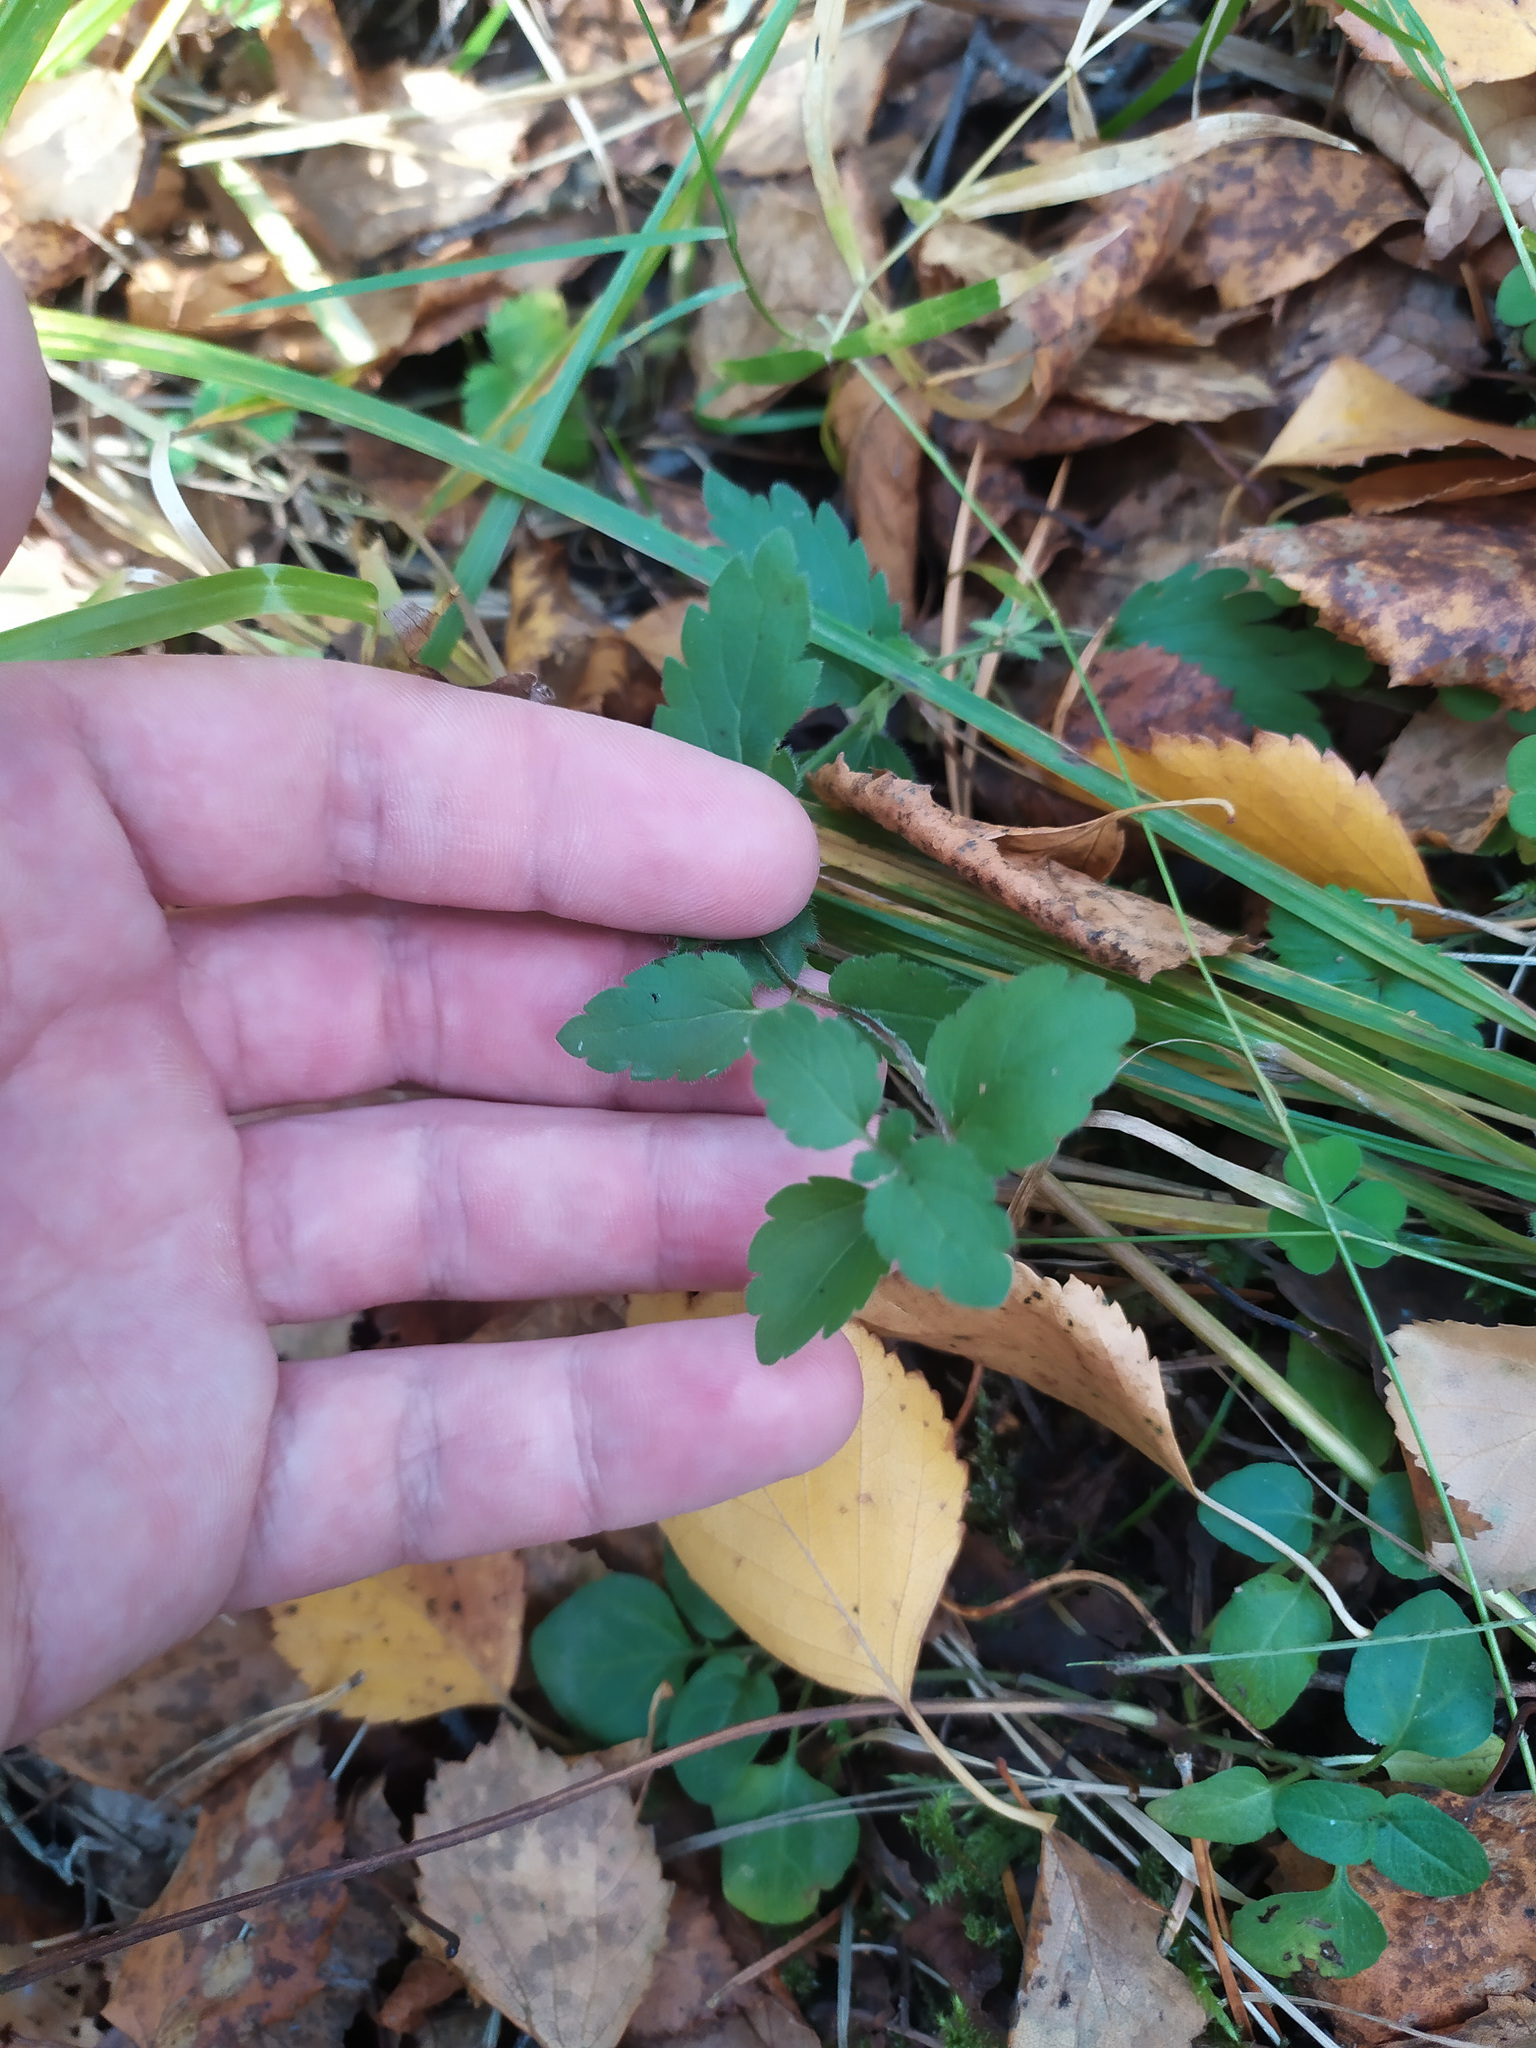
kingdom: Plantae
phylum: Tracheophyta
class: Magnoliopsida
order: Lamiales
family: Plantaginaceae
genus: Veronica
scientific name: Veronica chamaedrys
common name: Germander speedwell
